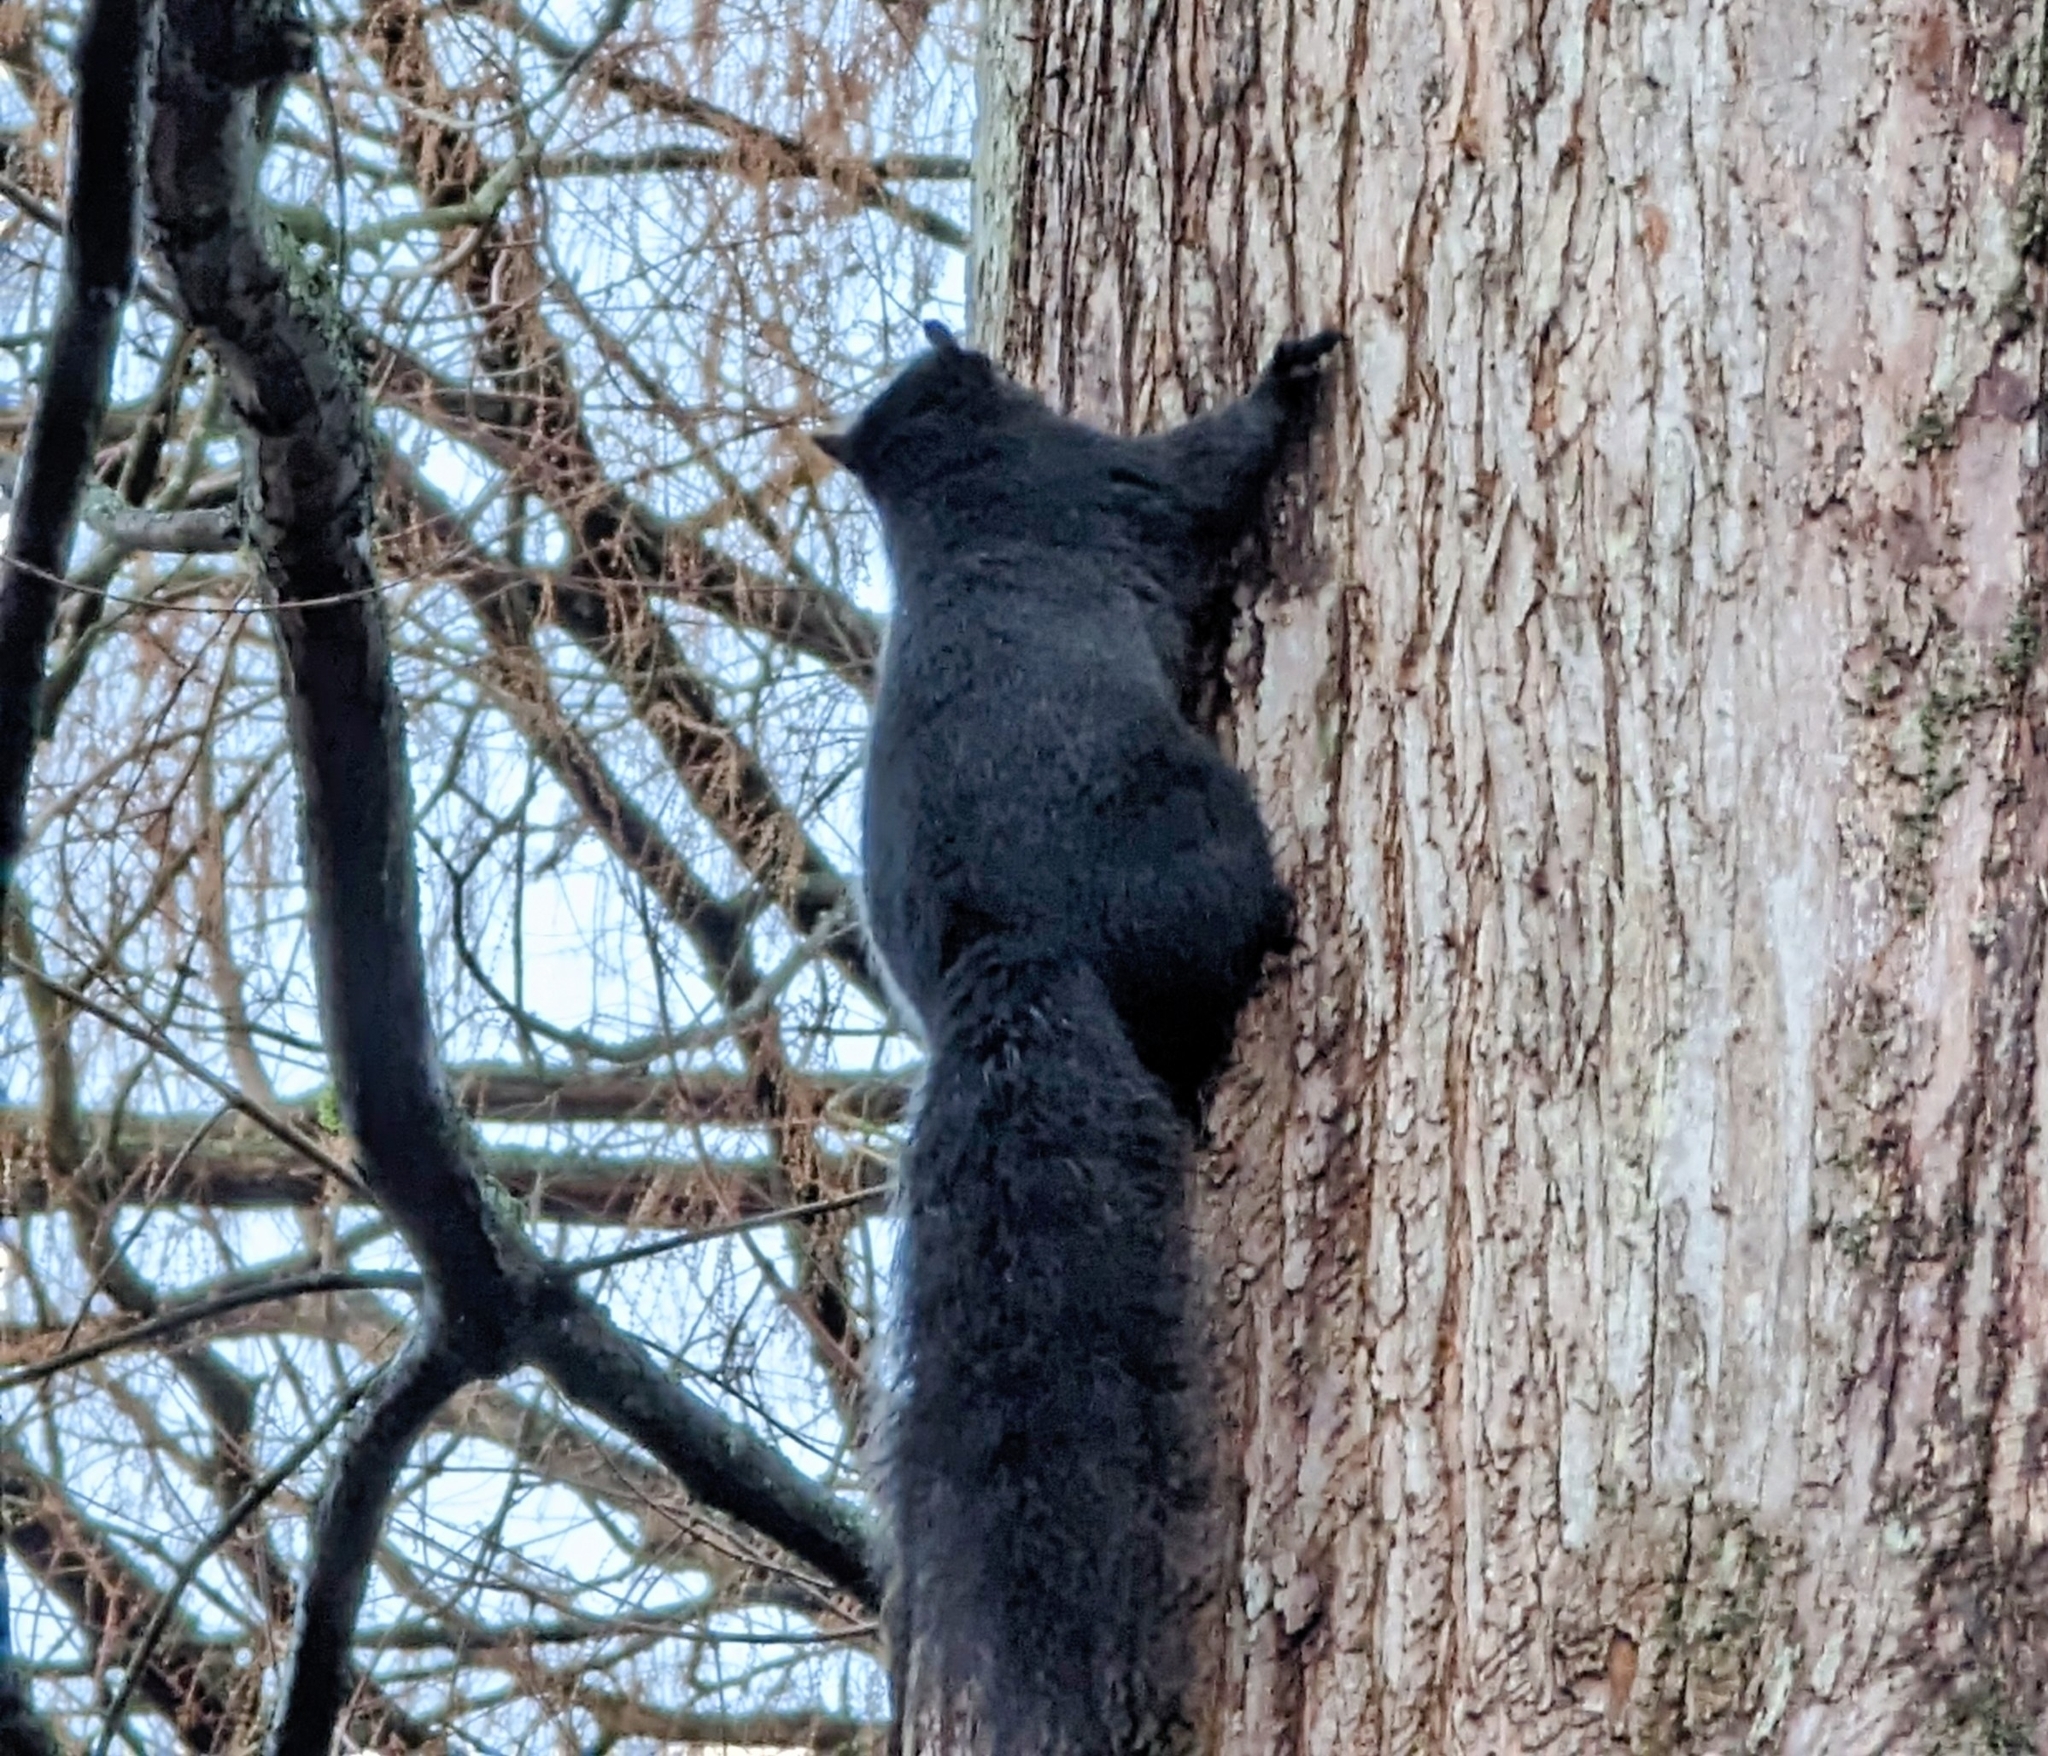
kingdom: Animalia
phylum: Chordata
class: Mammalia
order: Rodentia
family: Sciuridae
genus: Sciurus
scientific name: Sciurus carolinensis
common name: Eastern gray squirrel
